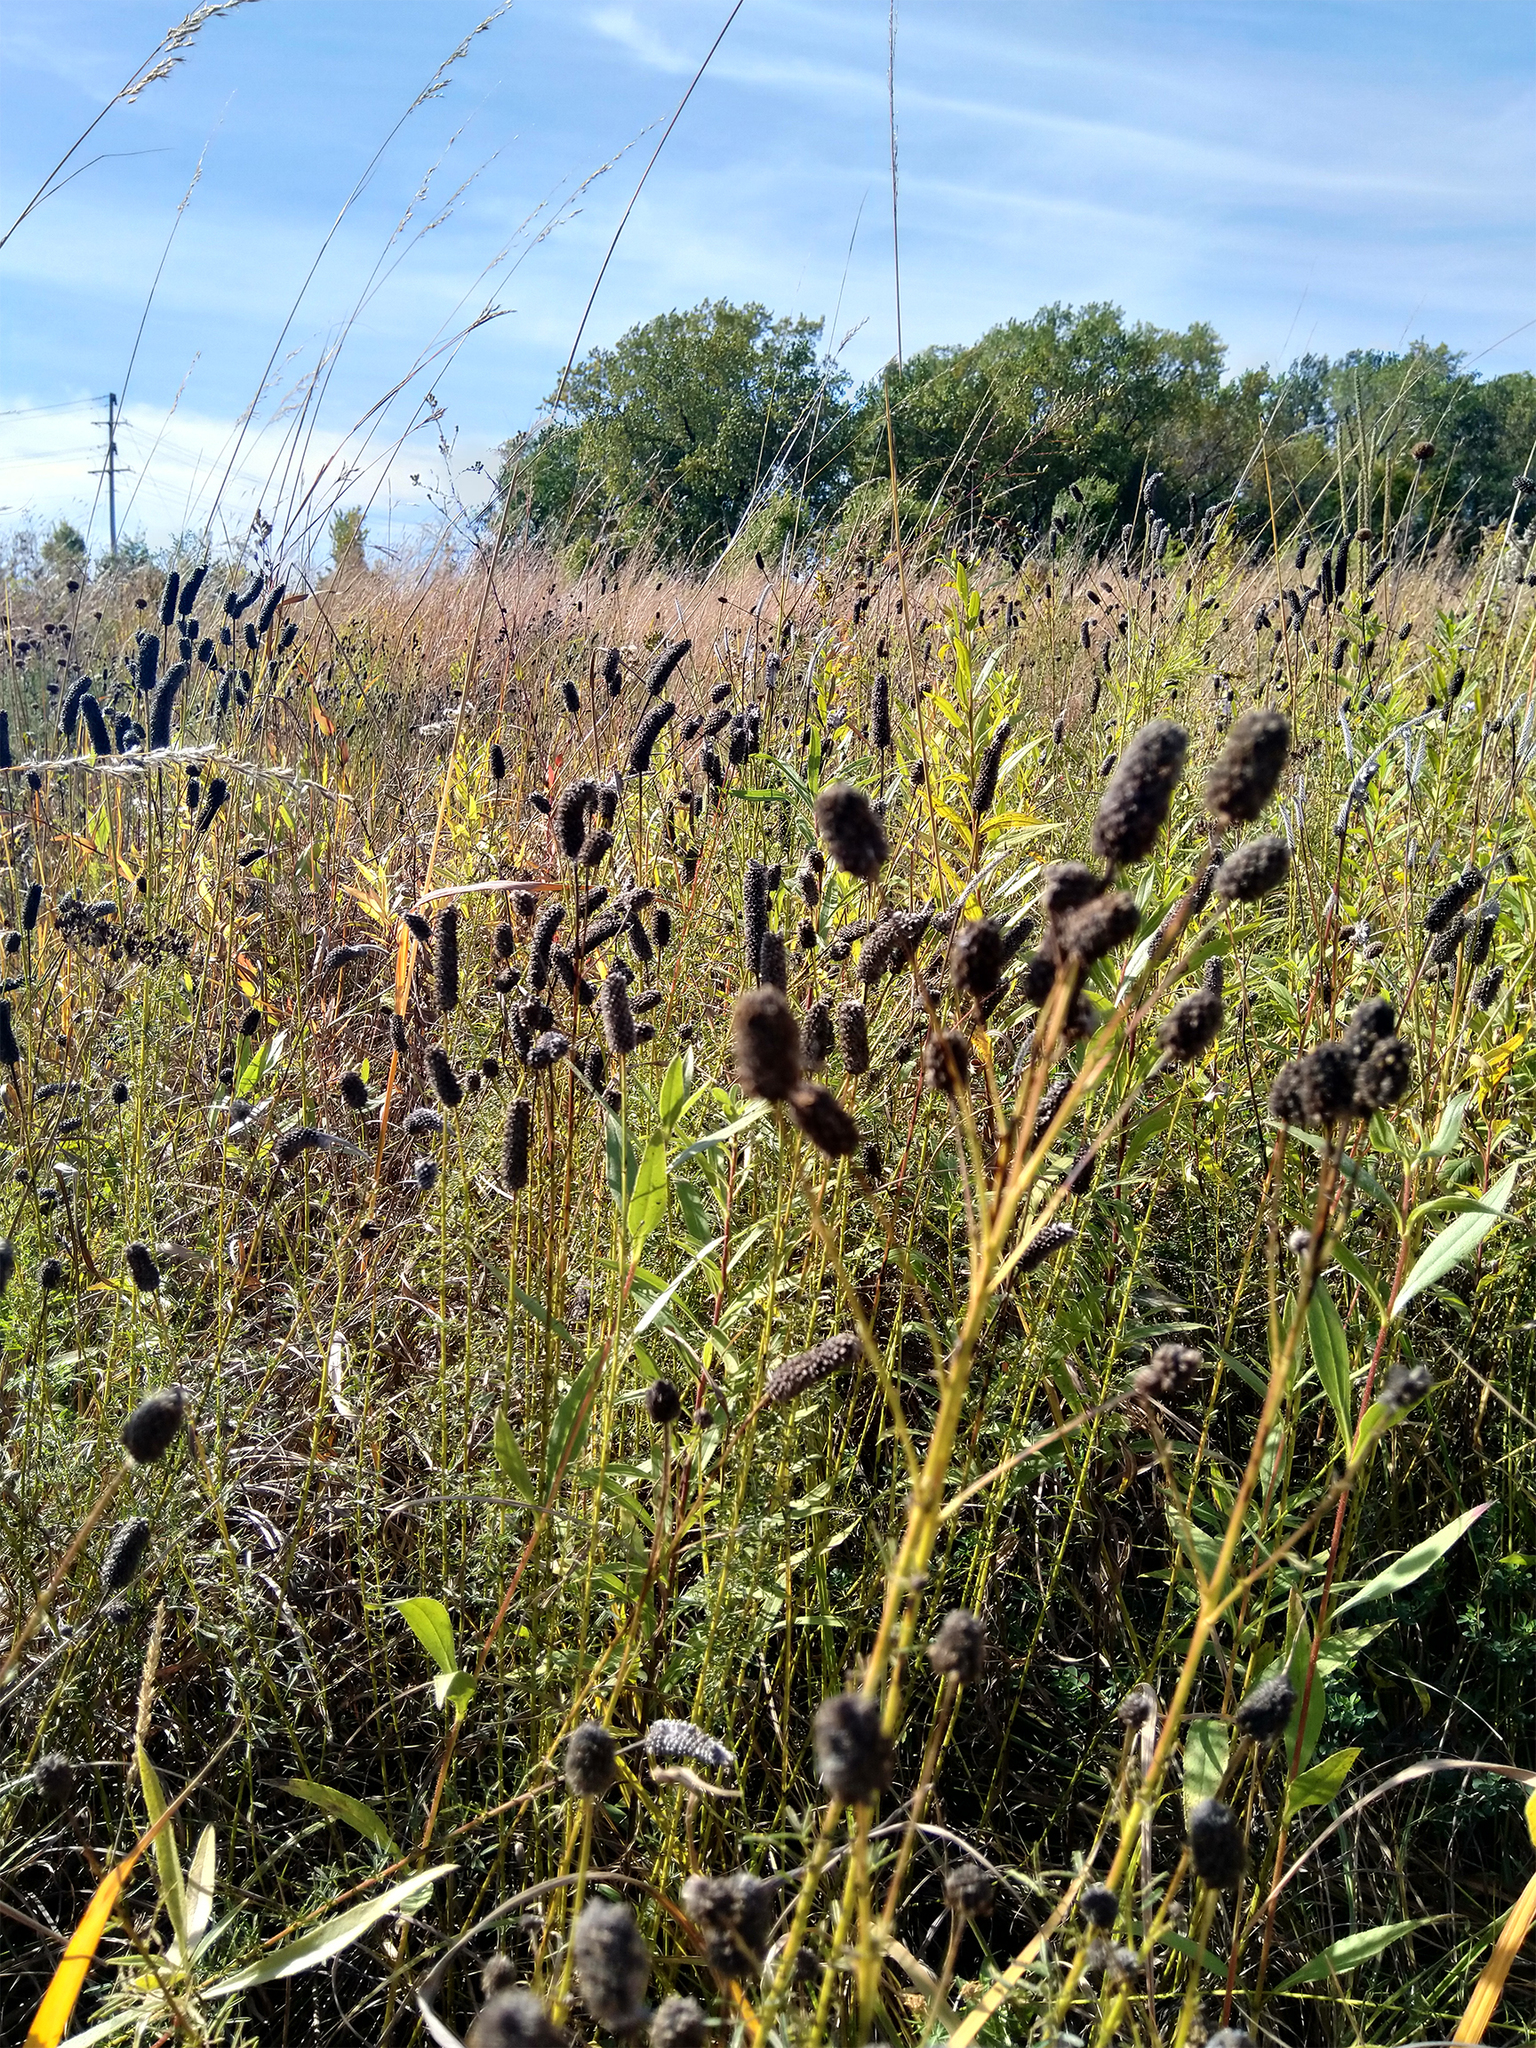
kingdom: Plantae
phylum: Tracheophyta
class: Magnoliopsida
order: Fabales
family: Fabaceae
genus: Dalea
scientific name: Dalea purpurea
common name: Purple prairie-clover
